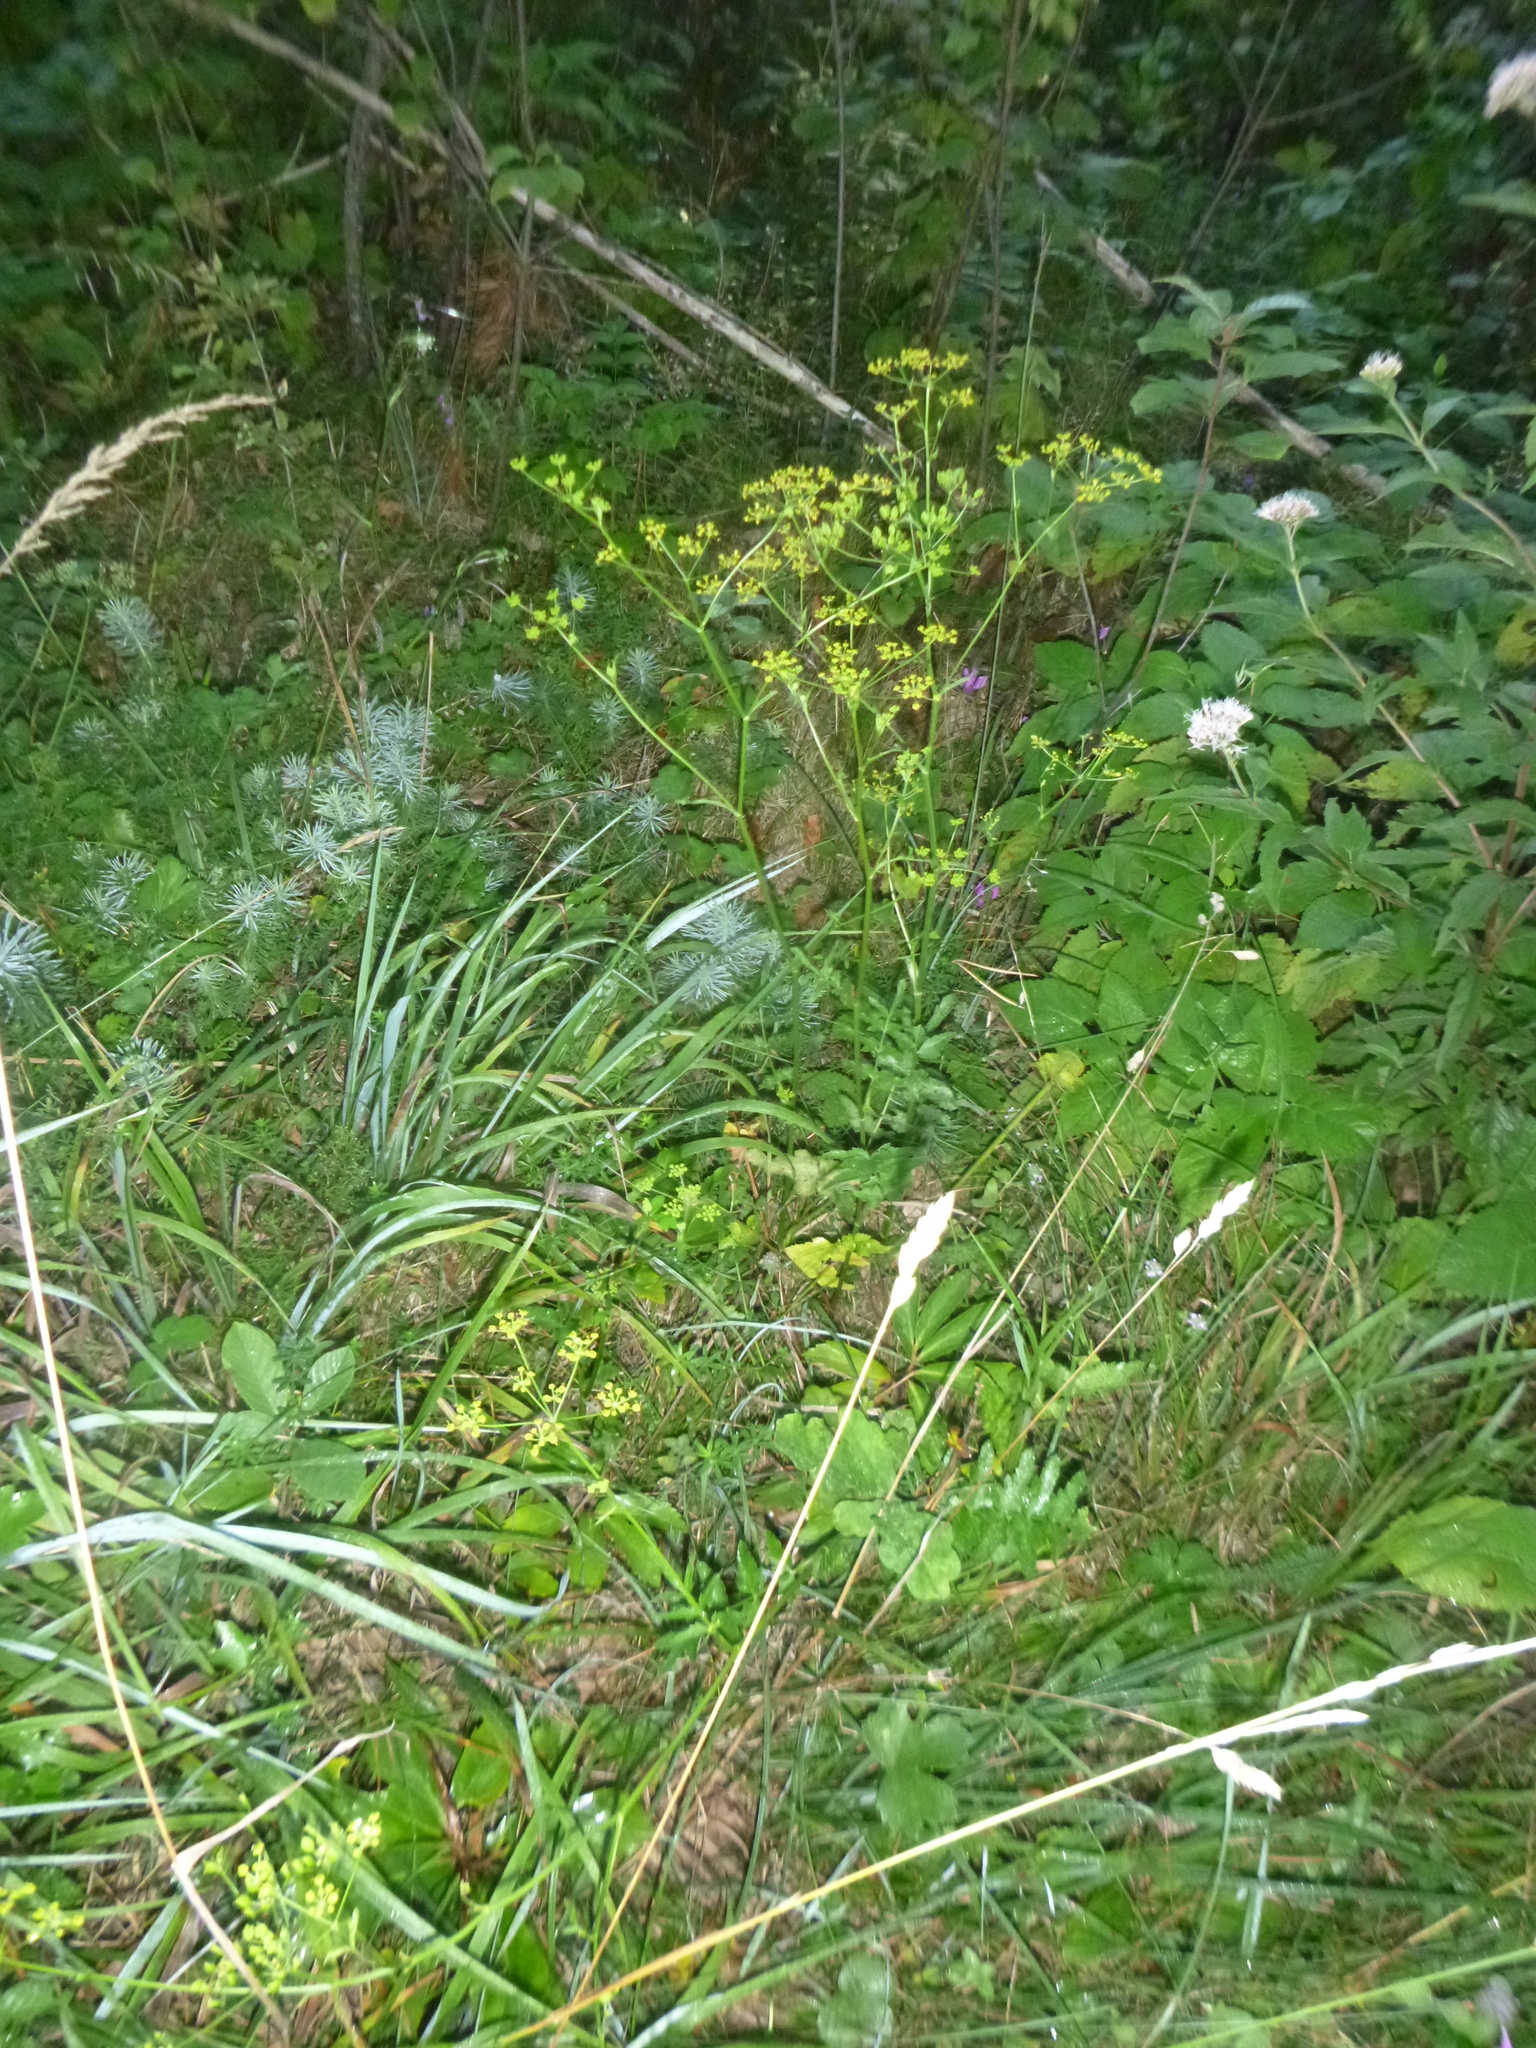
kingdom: Plantae
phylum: Tracheophyta
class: Magnoliopsida
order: Apiales
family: Apiaceae
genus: Pastinaca
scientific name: Pastinaca sativa
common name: Wild parsnip
